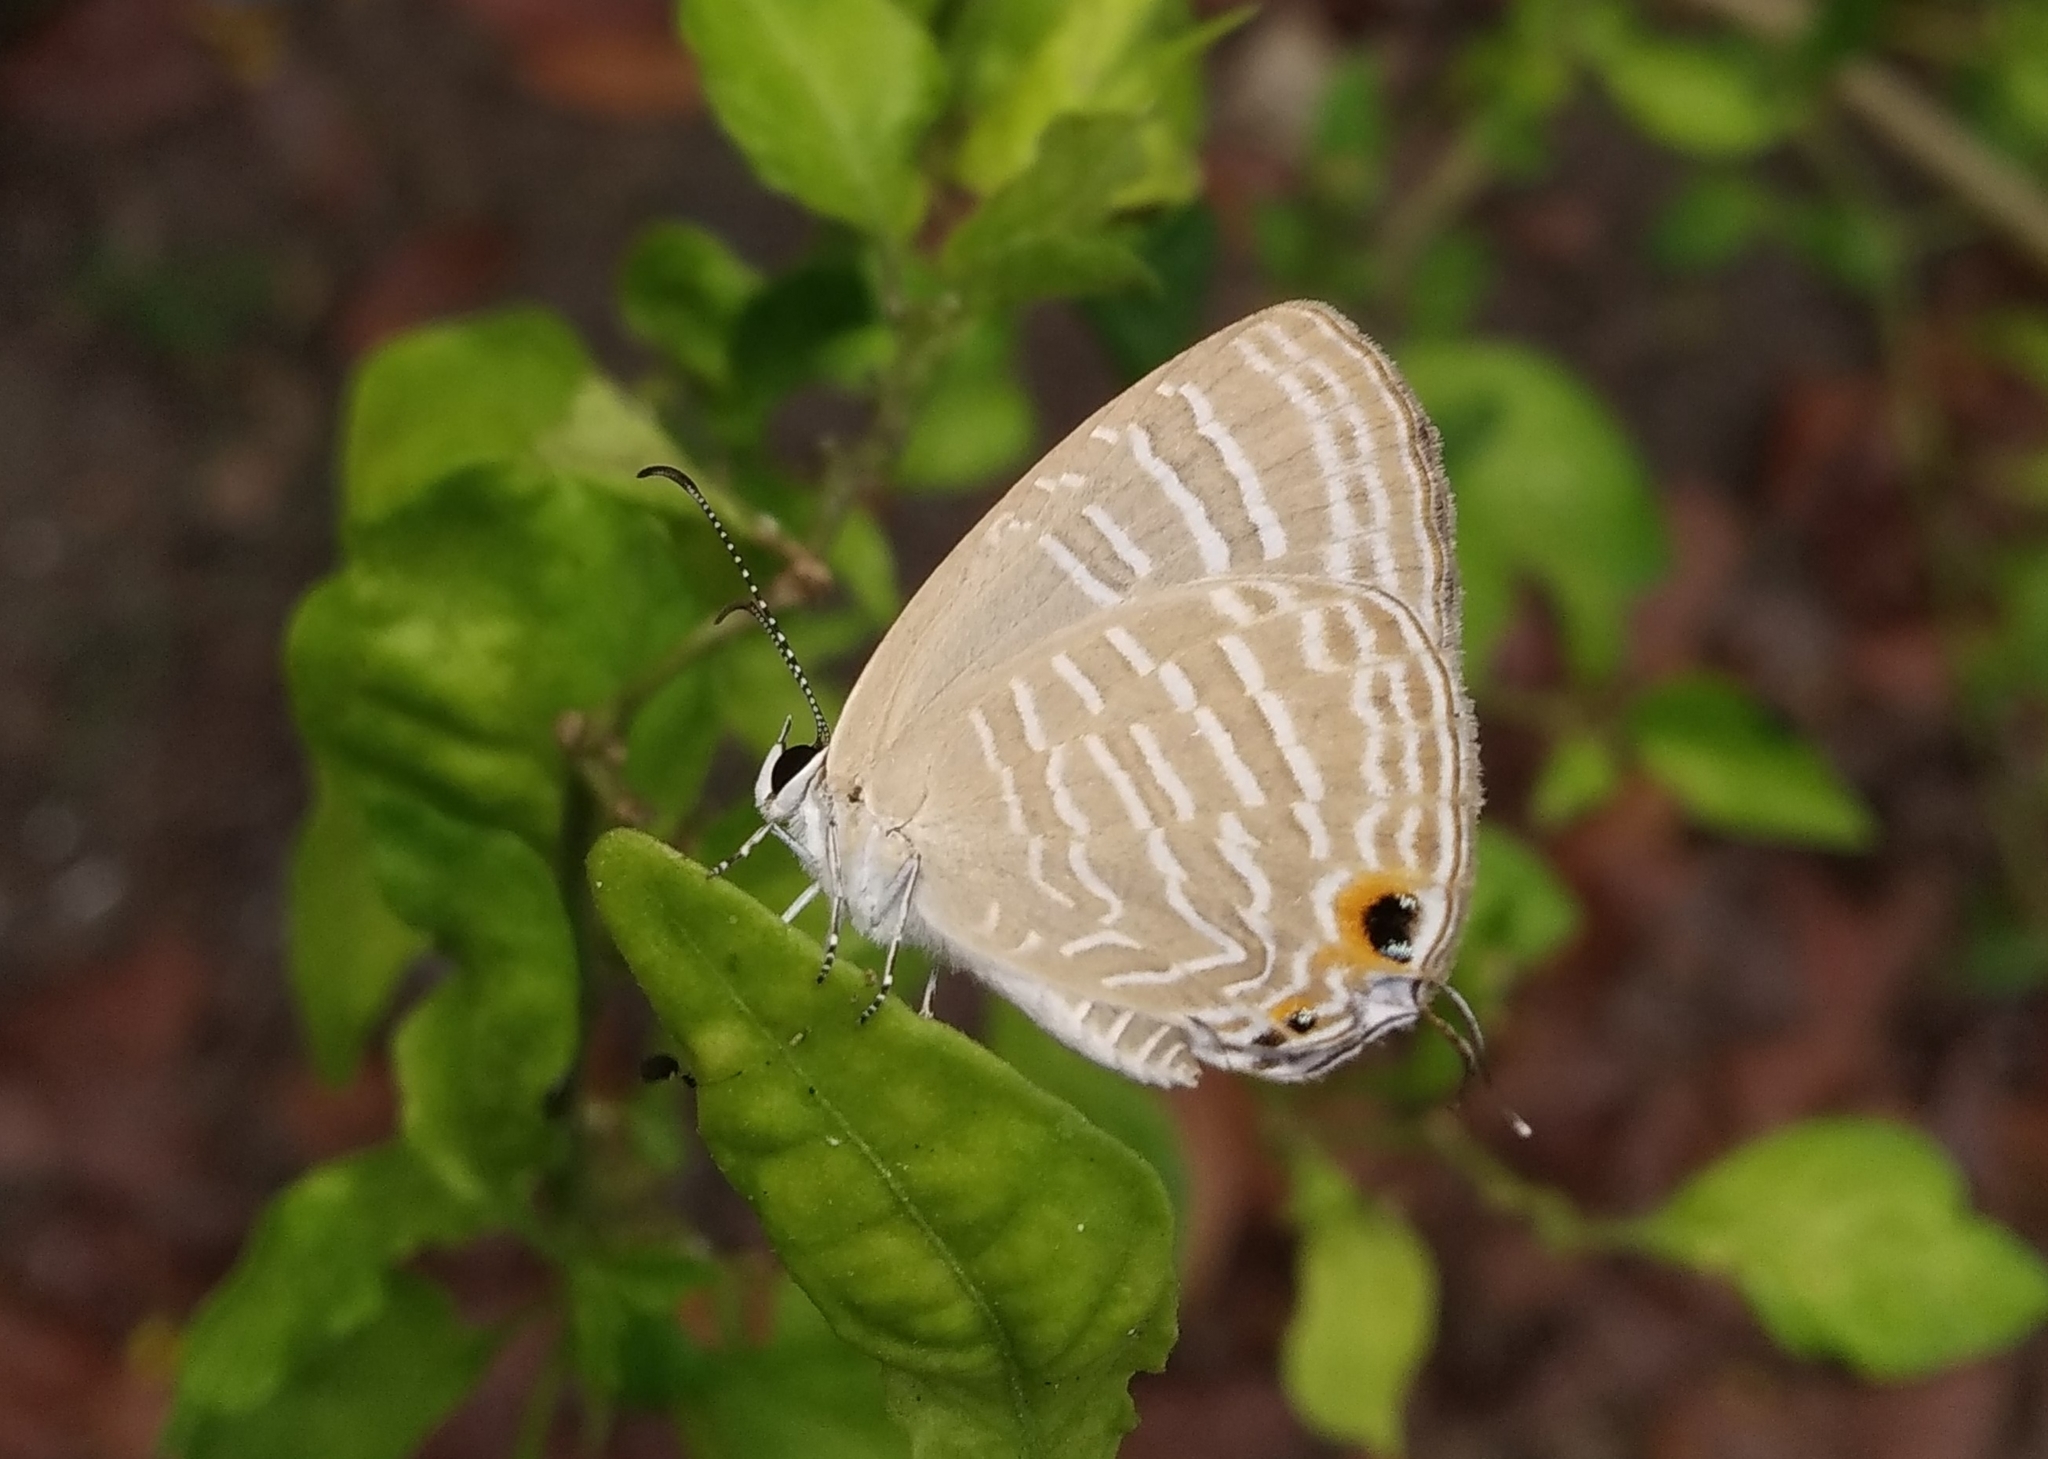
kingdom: Animalia
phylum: Arthropoda
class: Insecta
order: Lepidoptera
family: Lycaenidae
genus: Jamides
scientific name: Jamides celeno
